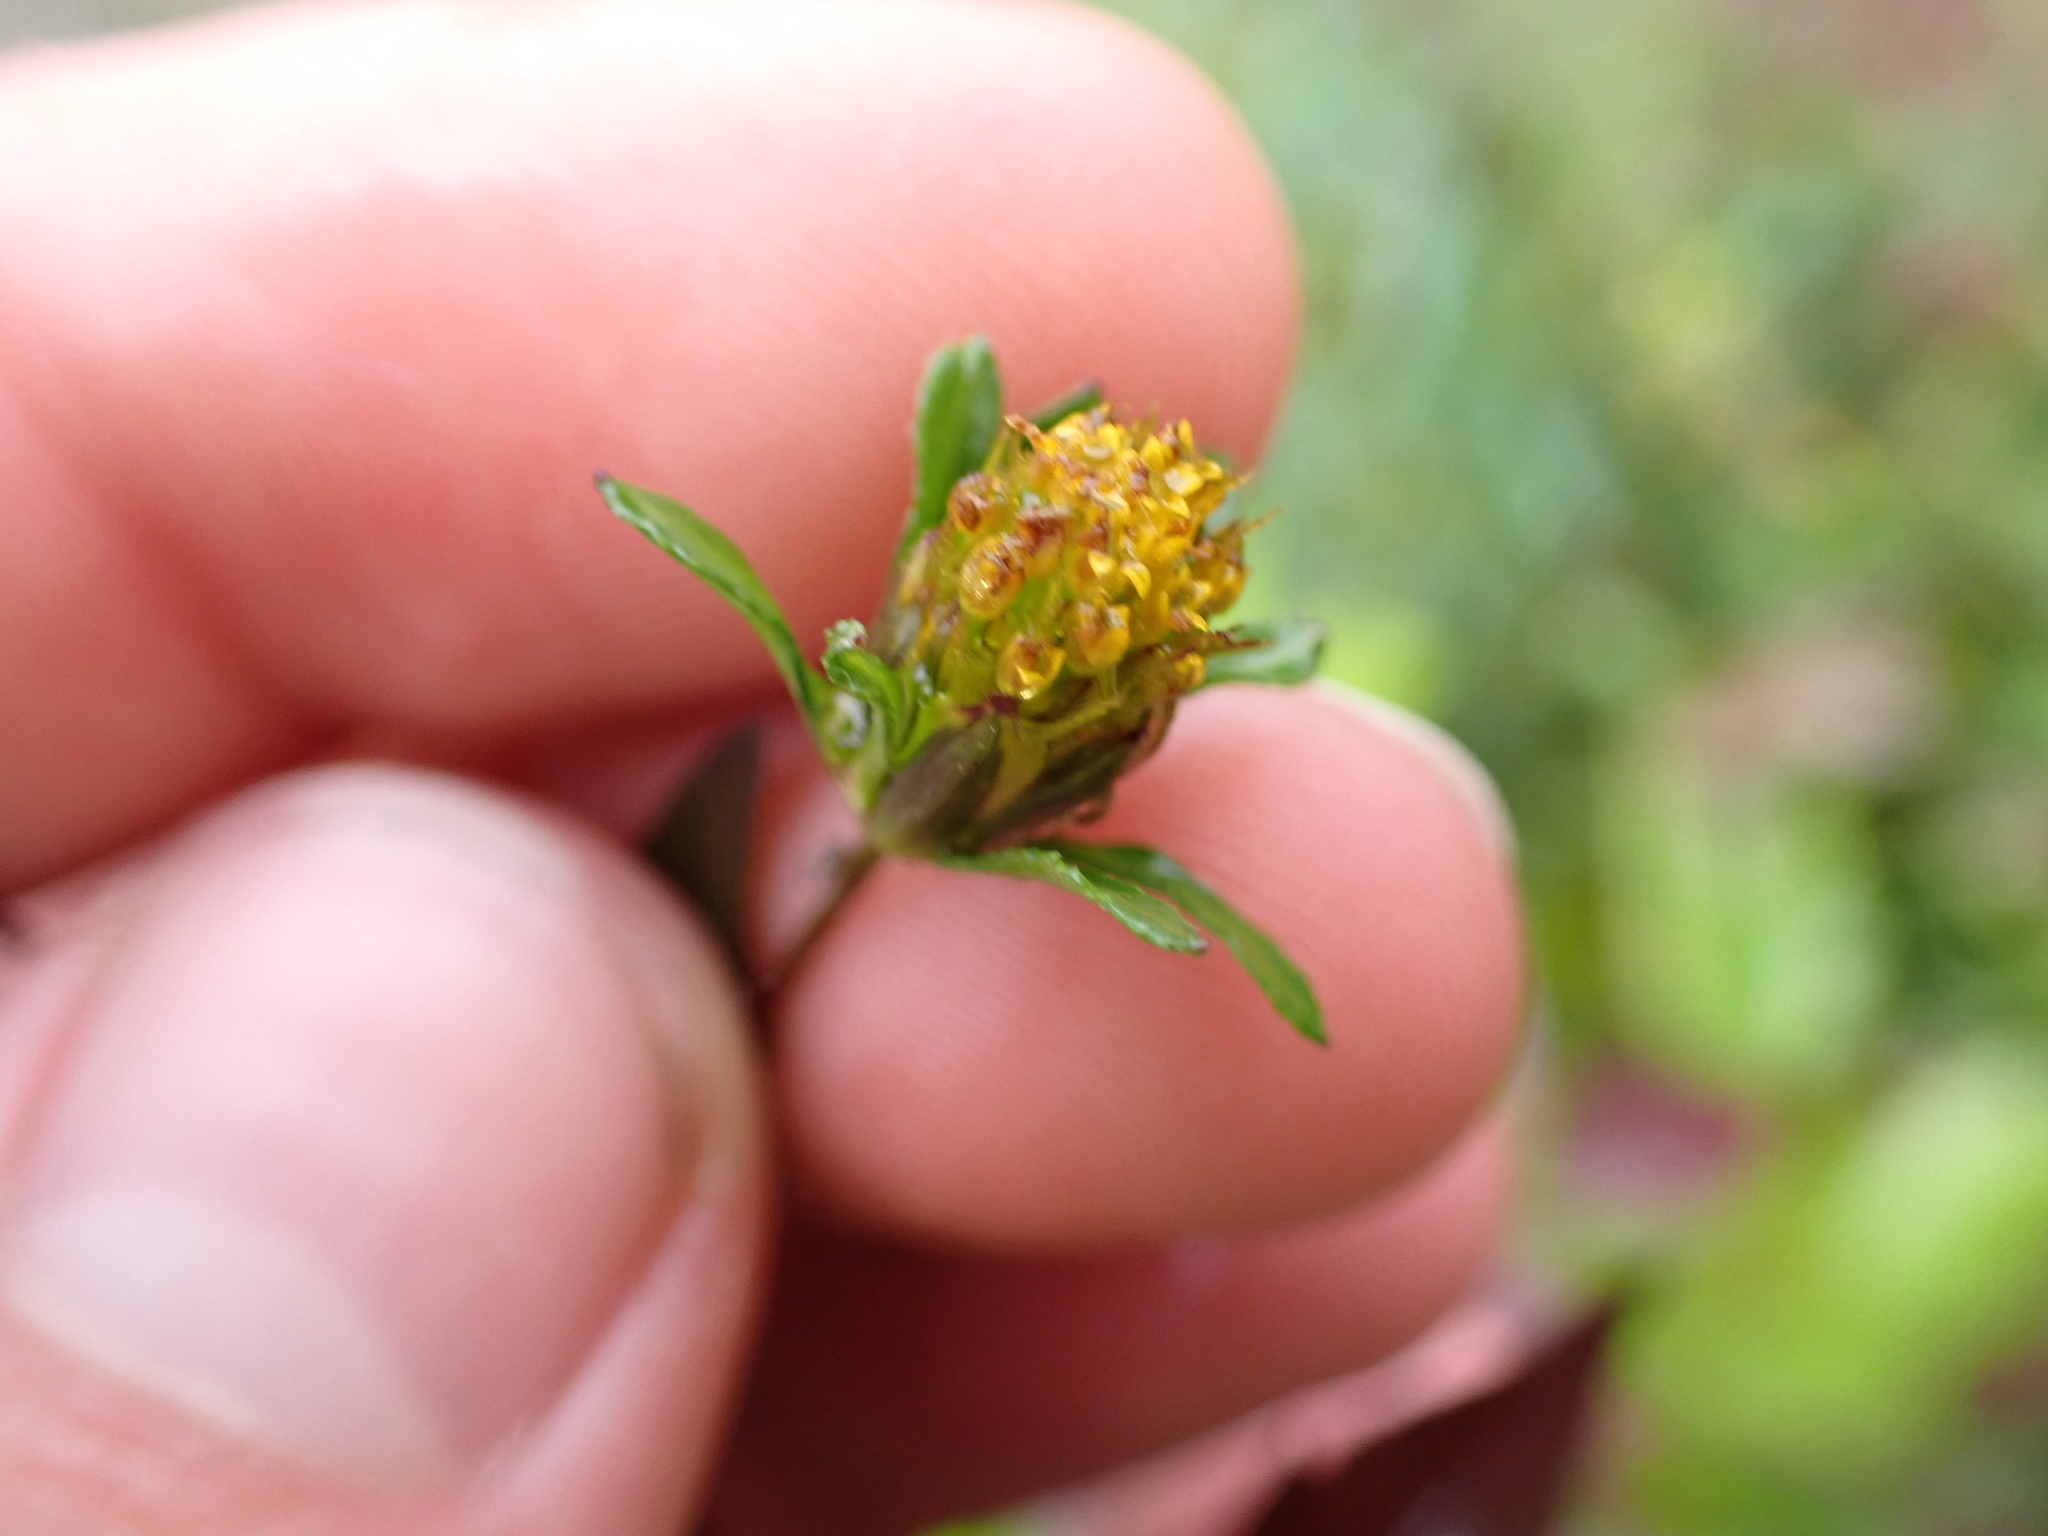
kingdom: Plantae
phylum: Tracheophyta
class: Magnoliopsida
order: Asterales
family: Asteraceae
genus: Bidens
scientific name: Bidens frondosa
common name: Beggarticks
